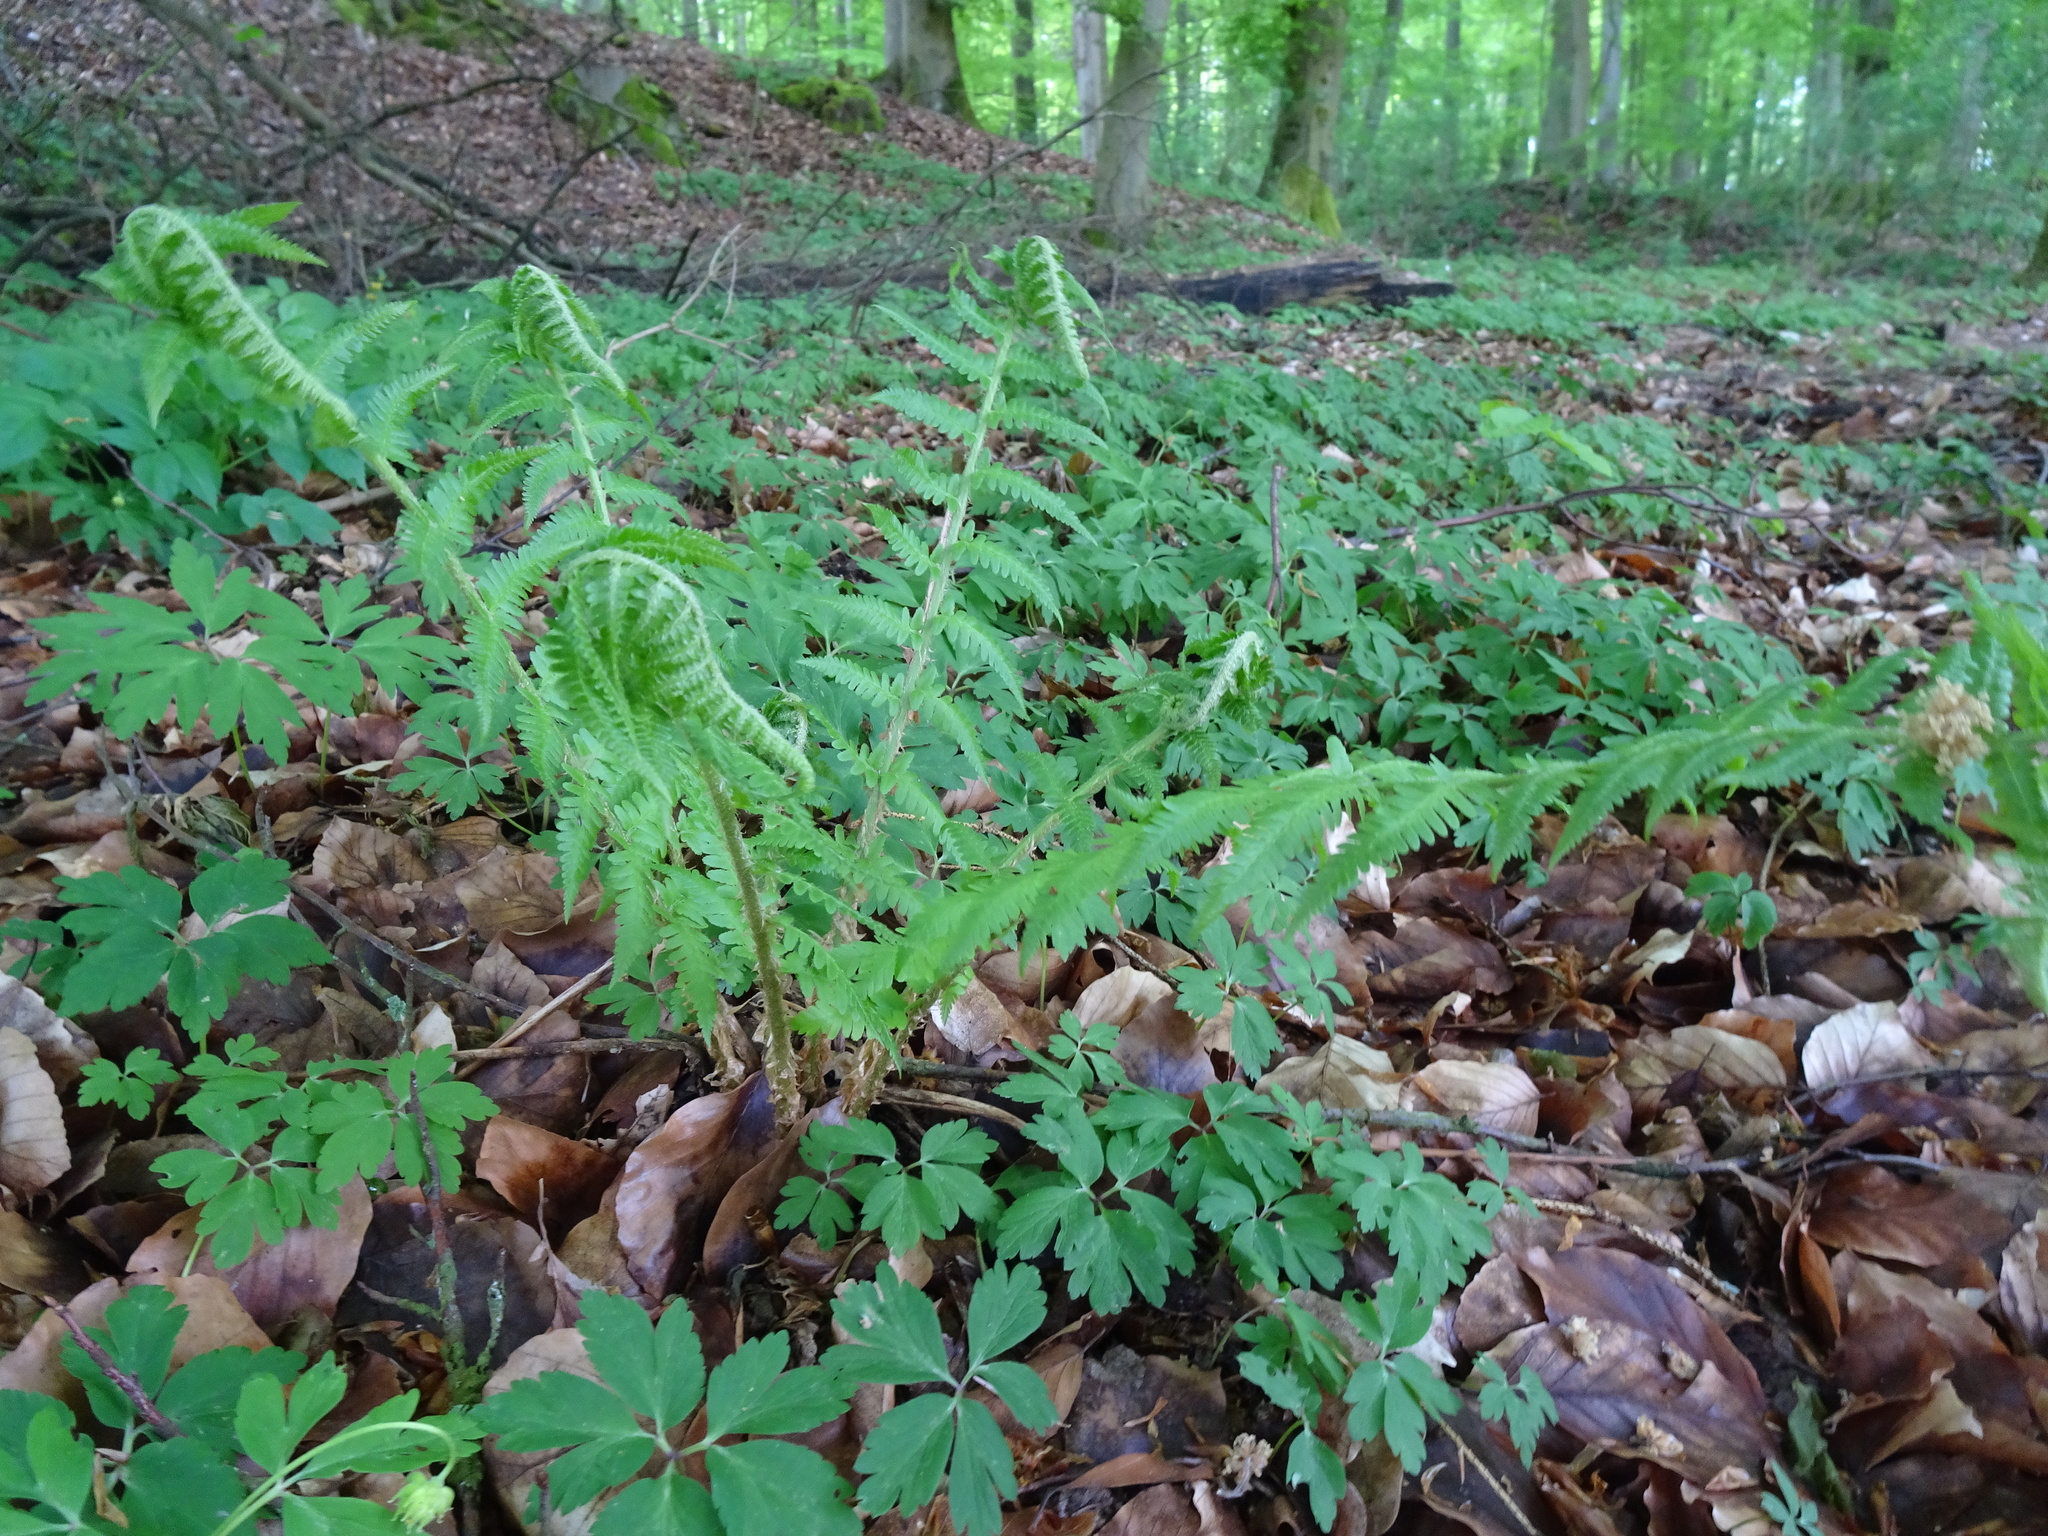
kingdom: Plantae
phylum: Tracheophyta
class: Polypodiopsida
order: Polypodiales
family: Dryopteridaceae
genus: Dryopteris
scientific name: Dryopteris filix-mas
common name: Male fern
